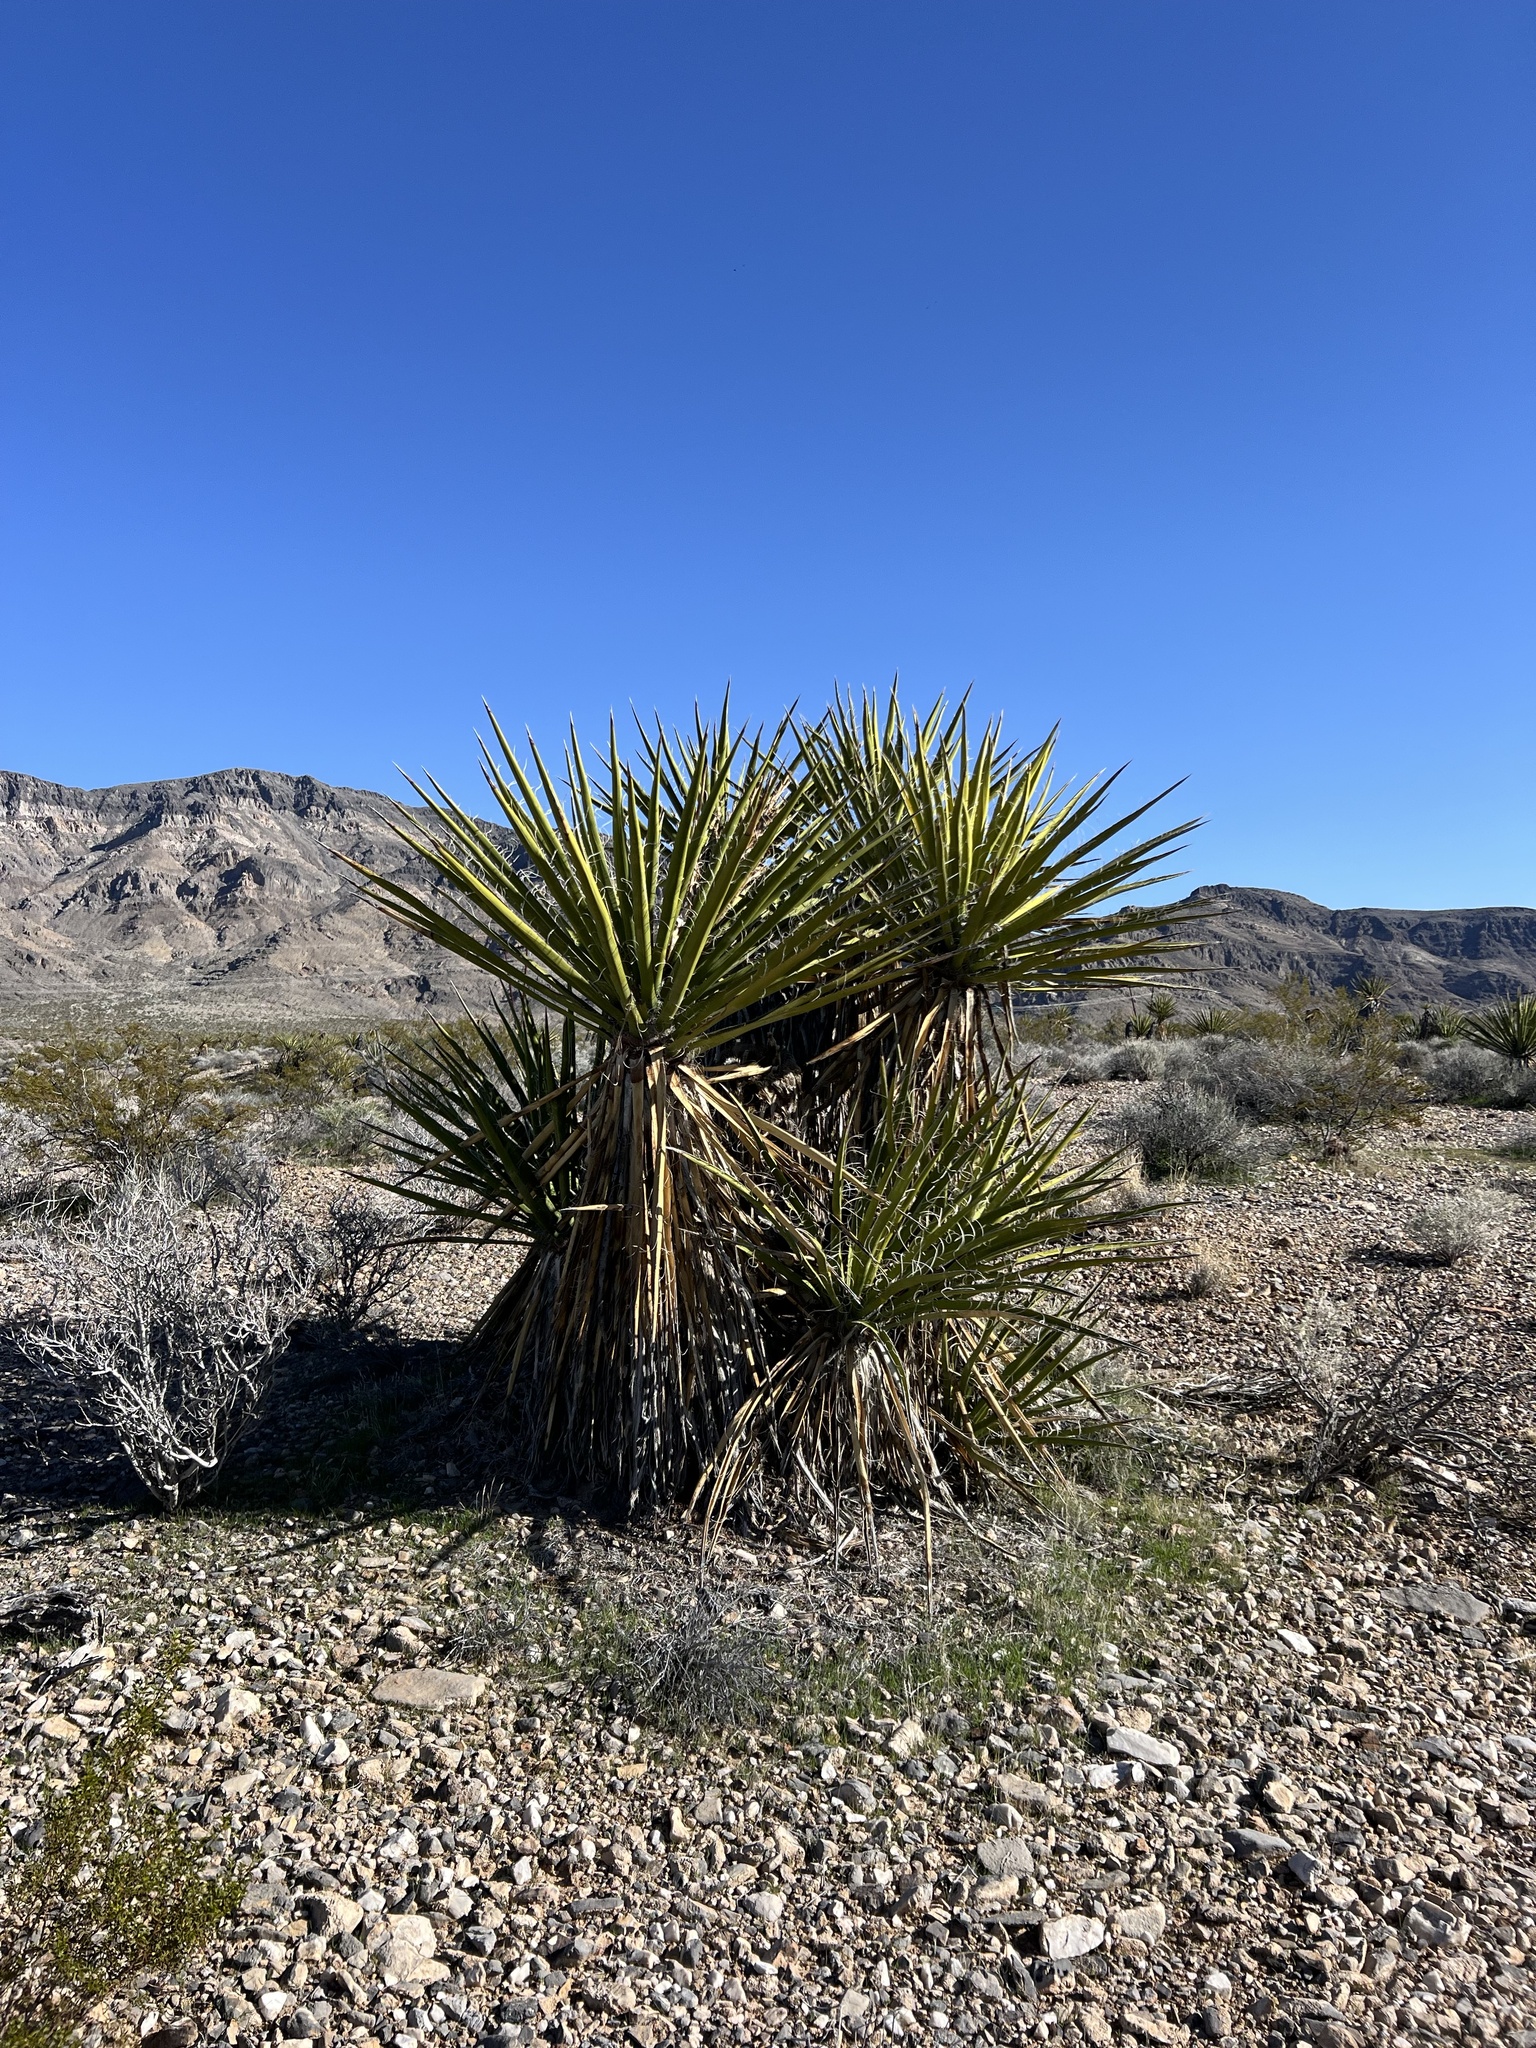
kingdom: Plantae
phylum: Tracheophyta
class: Liliopsida
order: Asparagales
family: Asparagaceae
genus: Yucca
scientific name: Yucca schidigera
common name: Mojave yucca
